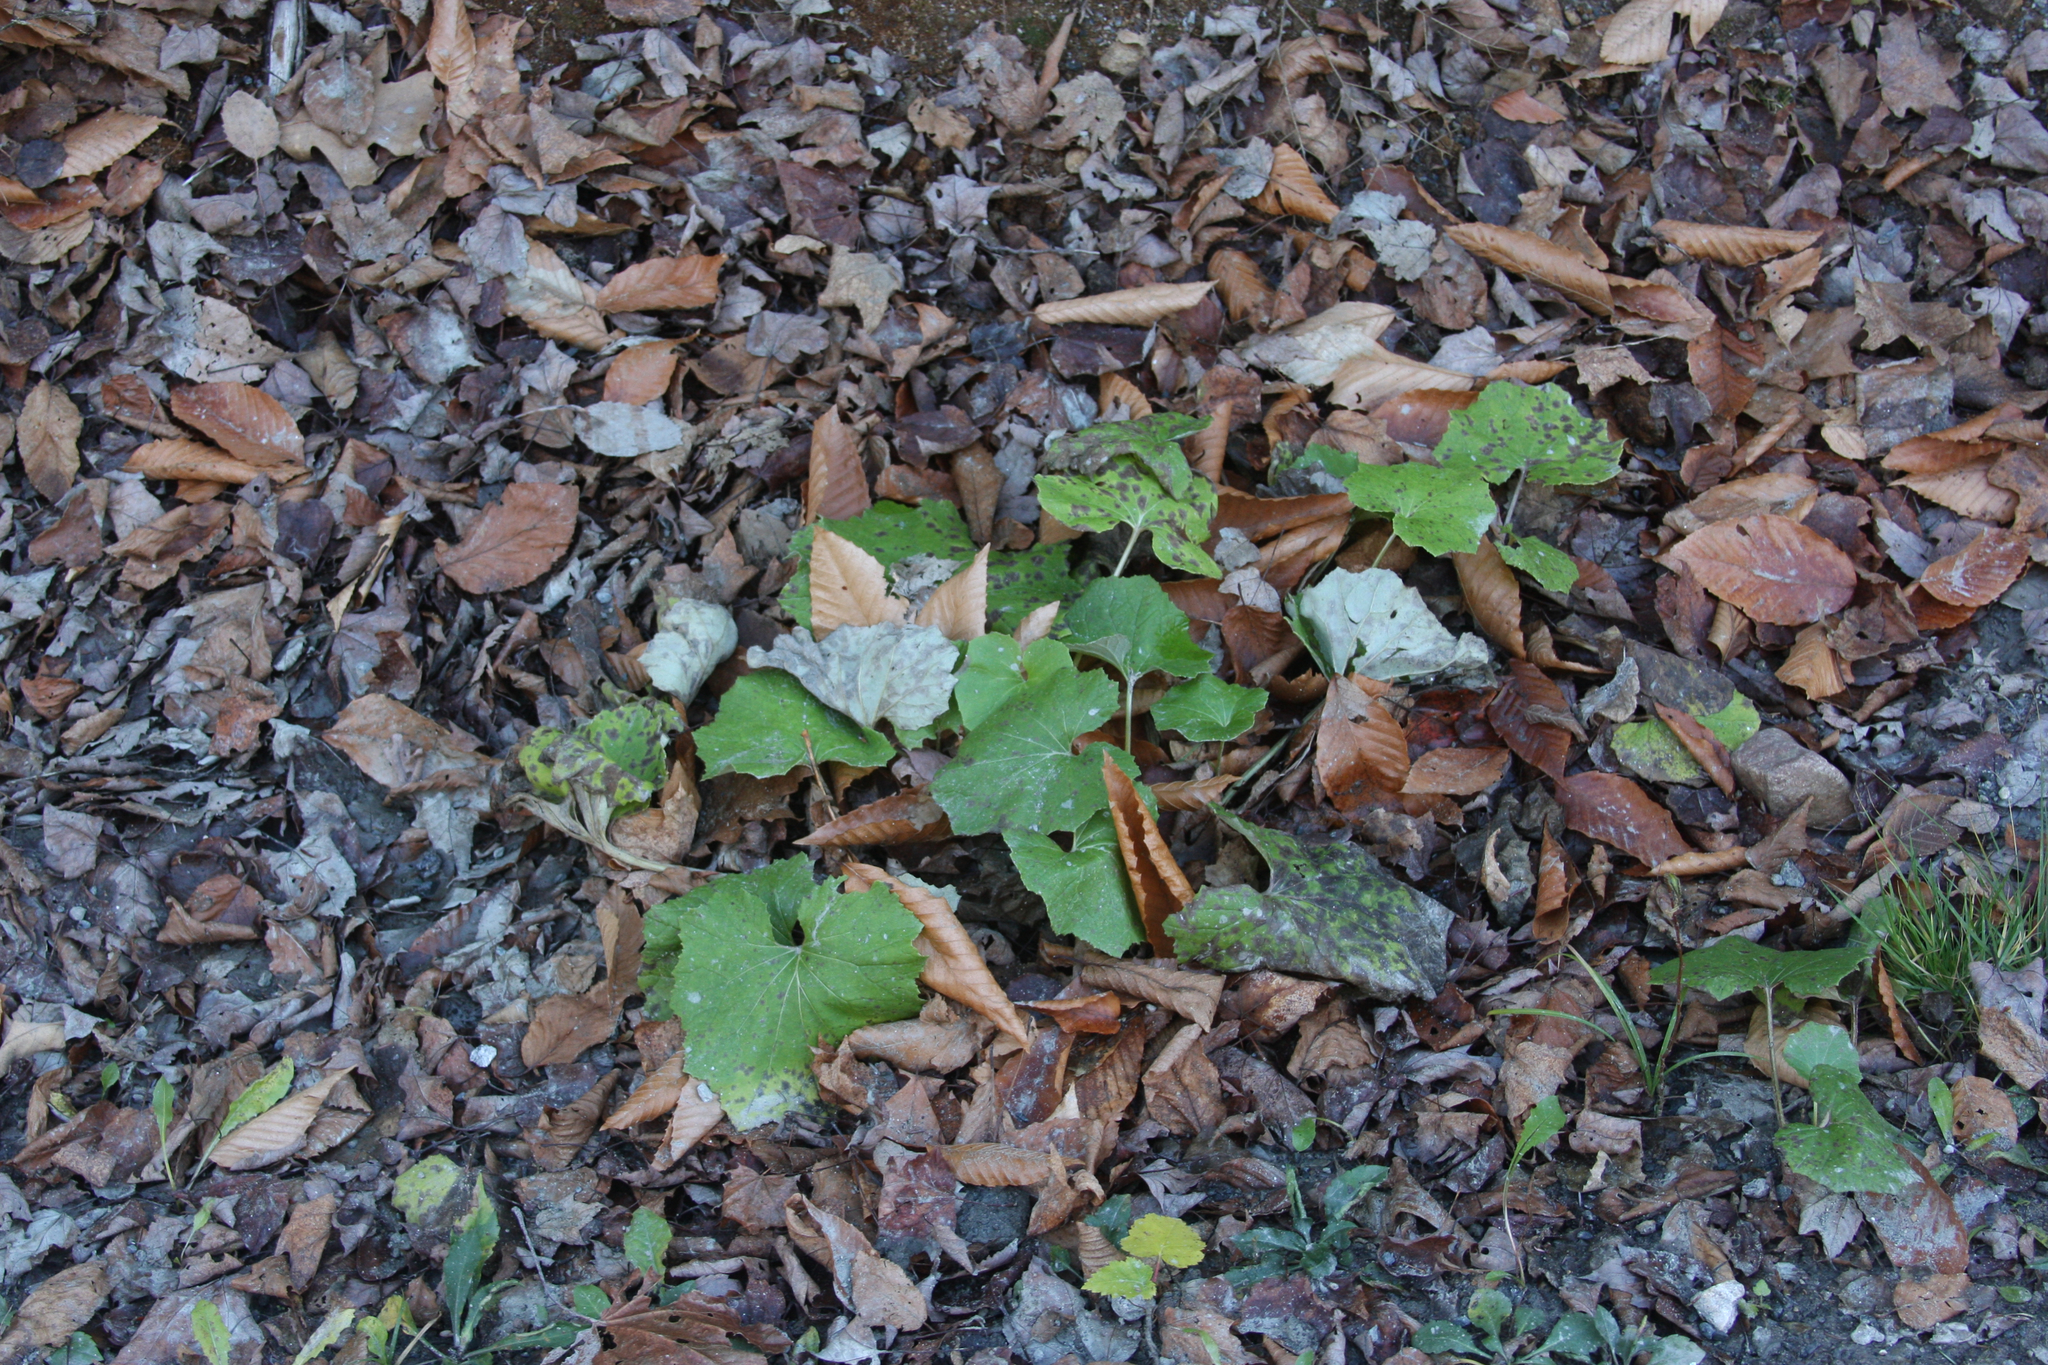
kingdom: Plantae
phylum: Tracheophyta
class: Magnoliopsida
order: Asterales
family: Asteraceae
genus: Tussilago
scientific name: Tussilago farfara
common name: Coltsfoot
